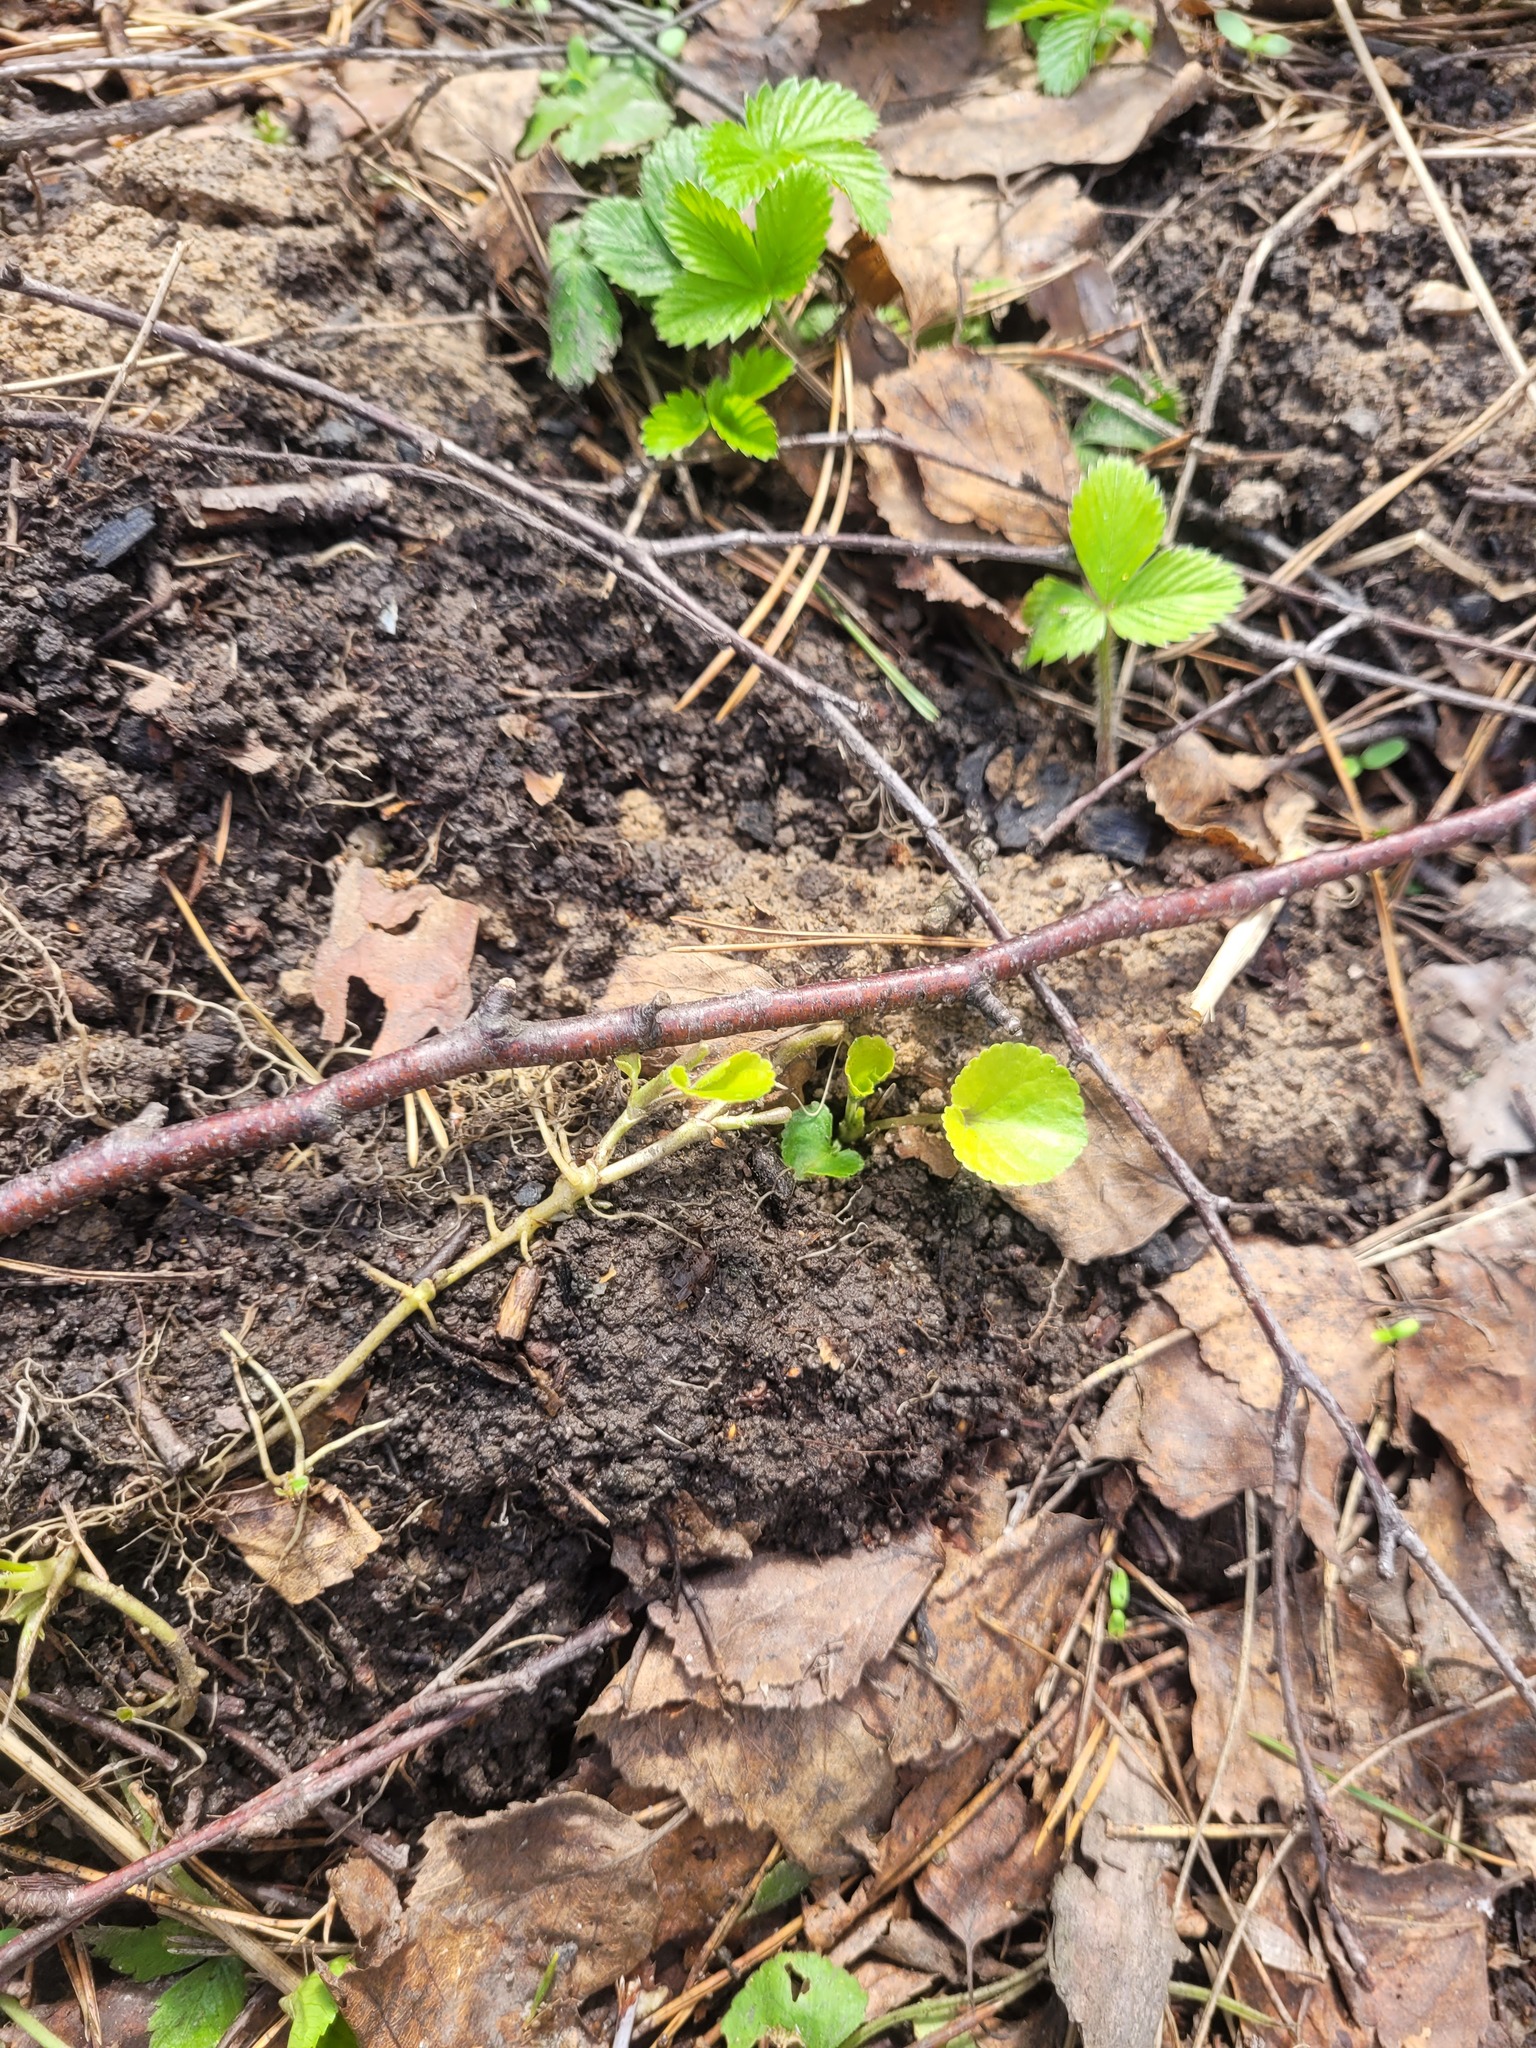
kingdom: Plantae
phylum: Tracheophyta
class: Magnoliopsida
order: Malpighiales
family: Violaceae
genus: Viola
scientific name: Viola odorata
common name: Sweet violet
